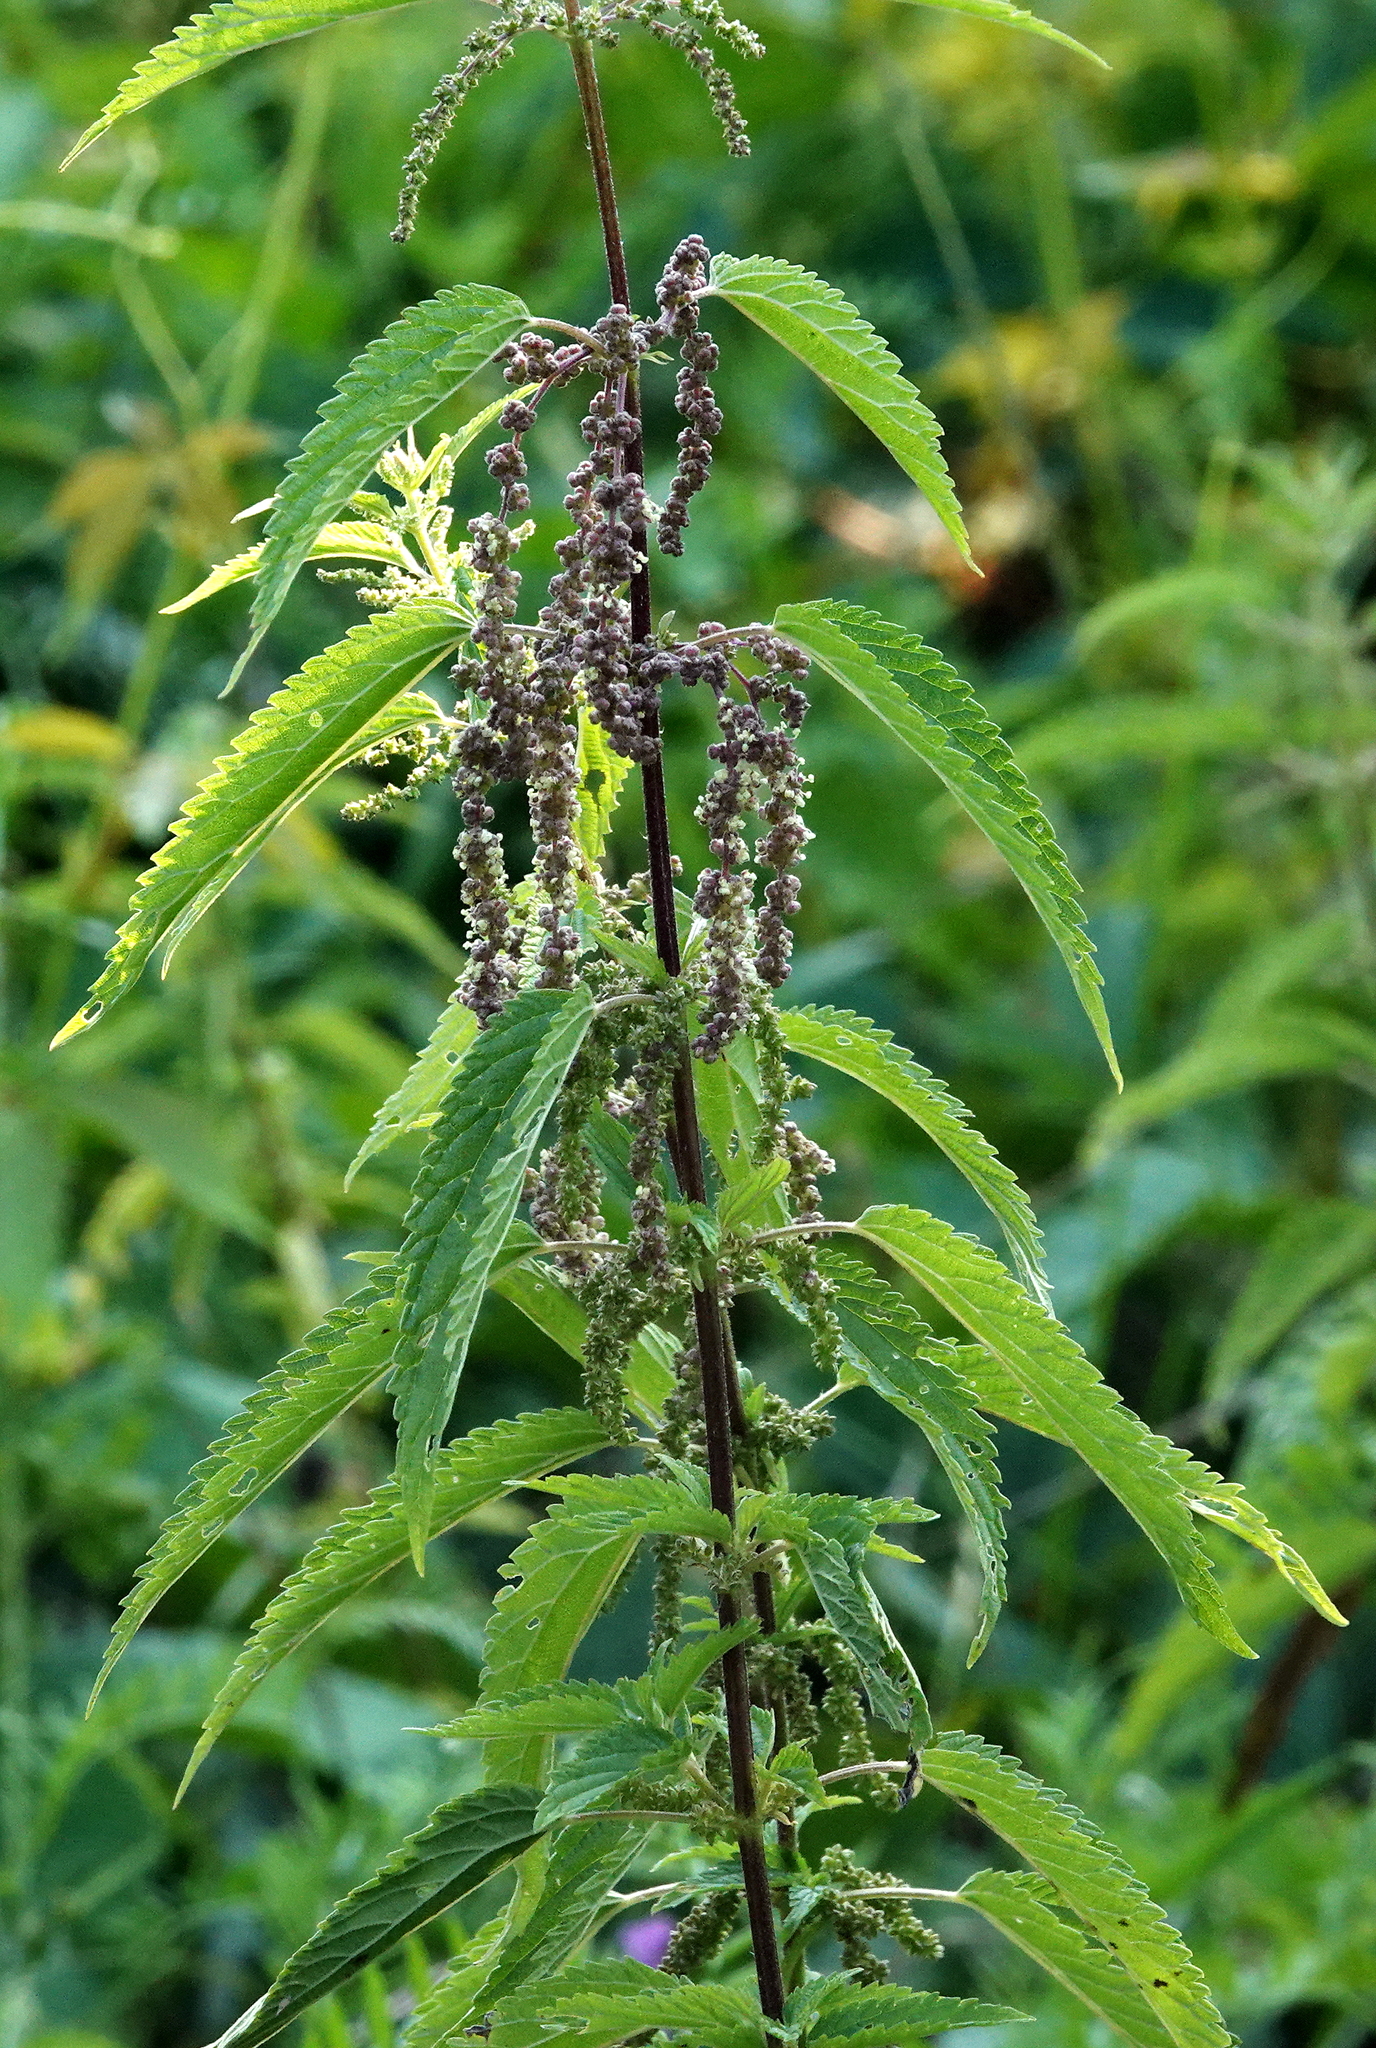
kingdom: Plantae
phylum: Tracheophyta
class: Magnoliopsida
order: Rosales
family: Urticaceae
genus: Urtica
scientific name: Urtica gracilis
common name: Slender stinging nettle
